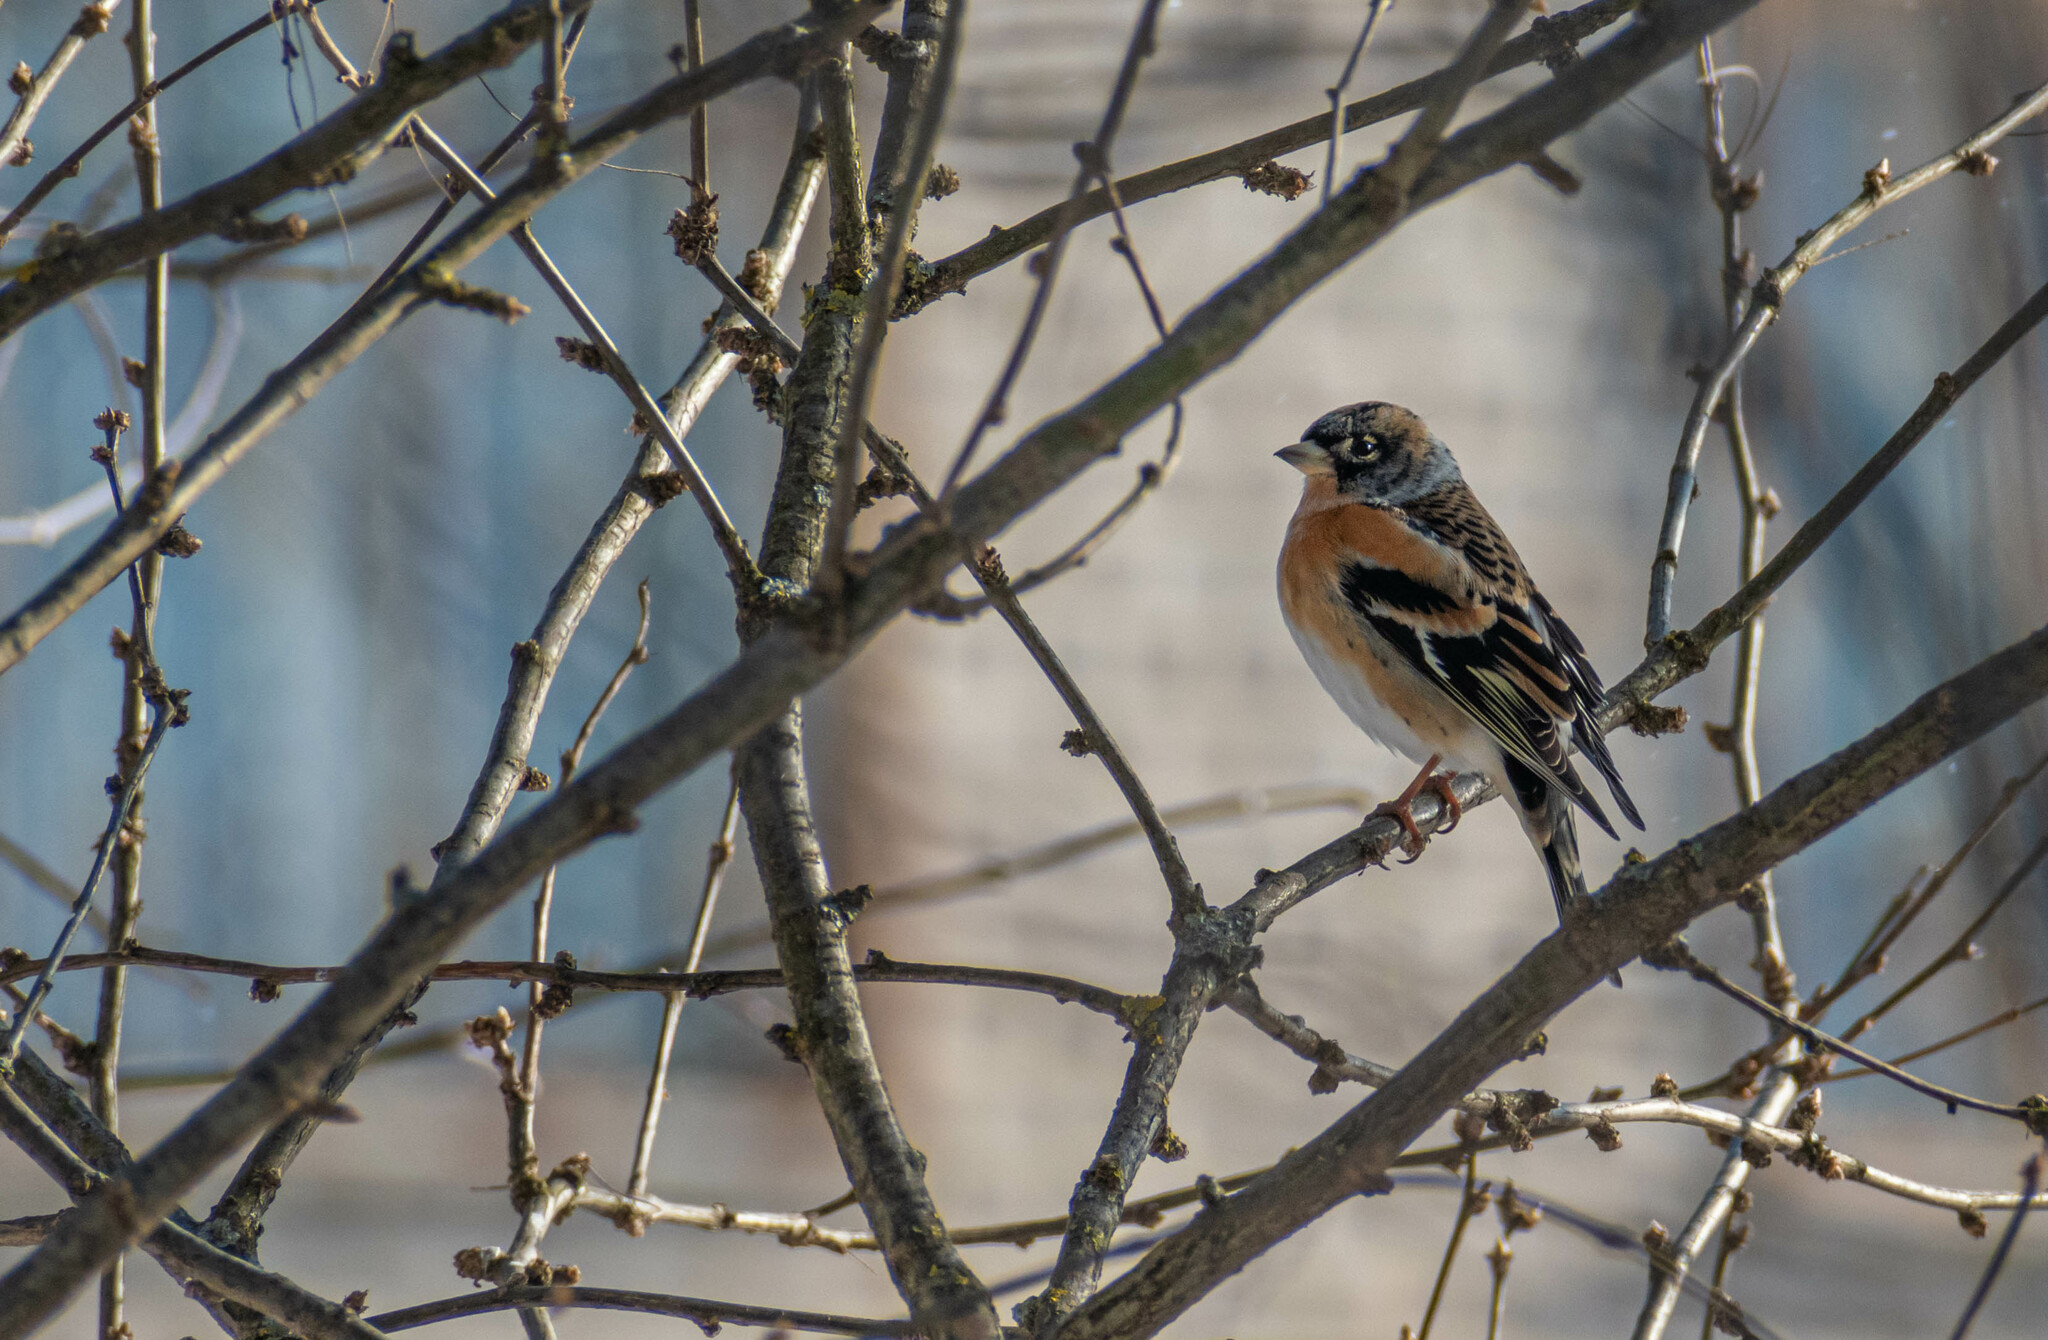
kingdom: Animalia
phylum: Chordata
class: Aves
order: Passeriformes
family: Fringillidae
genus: Fringilla
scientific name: Fringilla montifringilla
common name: Brambling
